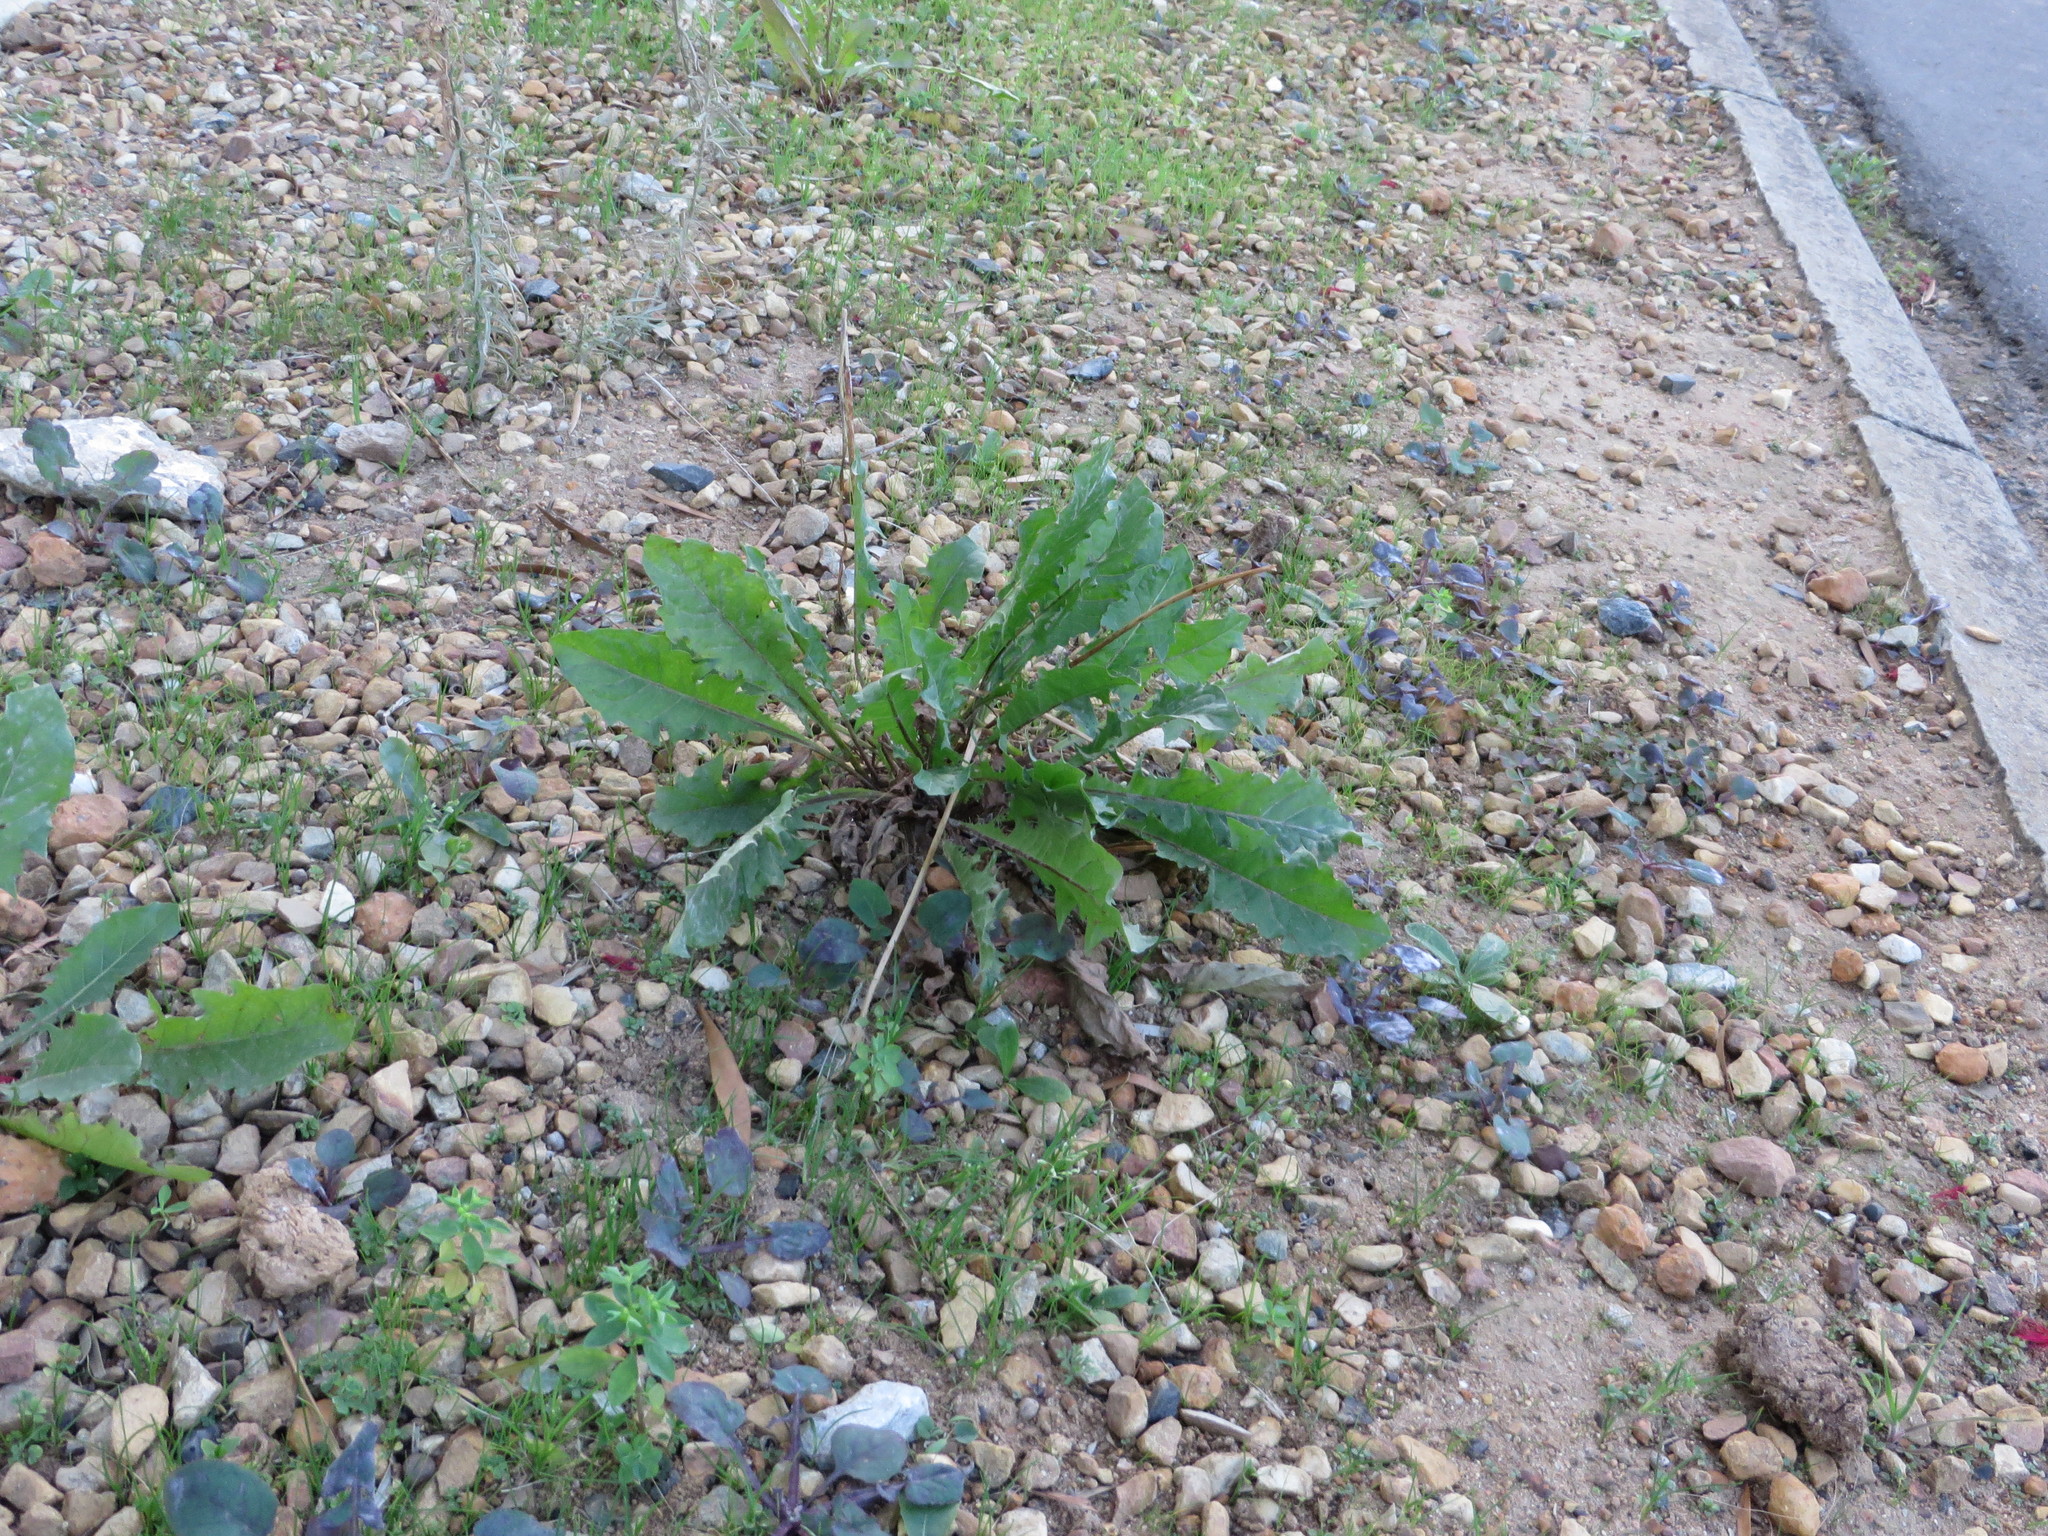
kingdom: Plantae
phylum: Tracheophyta
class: Magnoliopsida
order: Asterales
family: Asteraceae
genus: Taraxacum
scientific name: Taraxacum officinale
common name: Common dandelion
